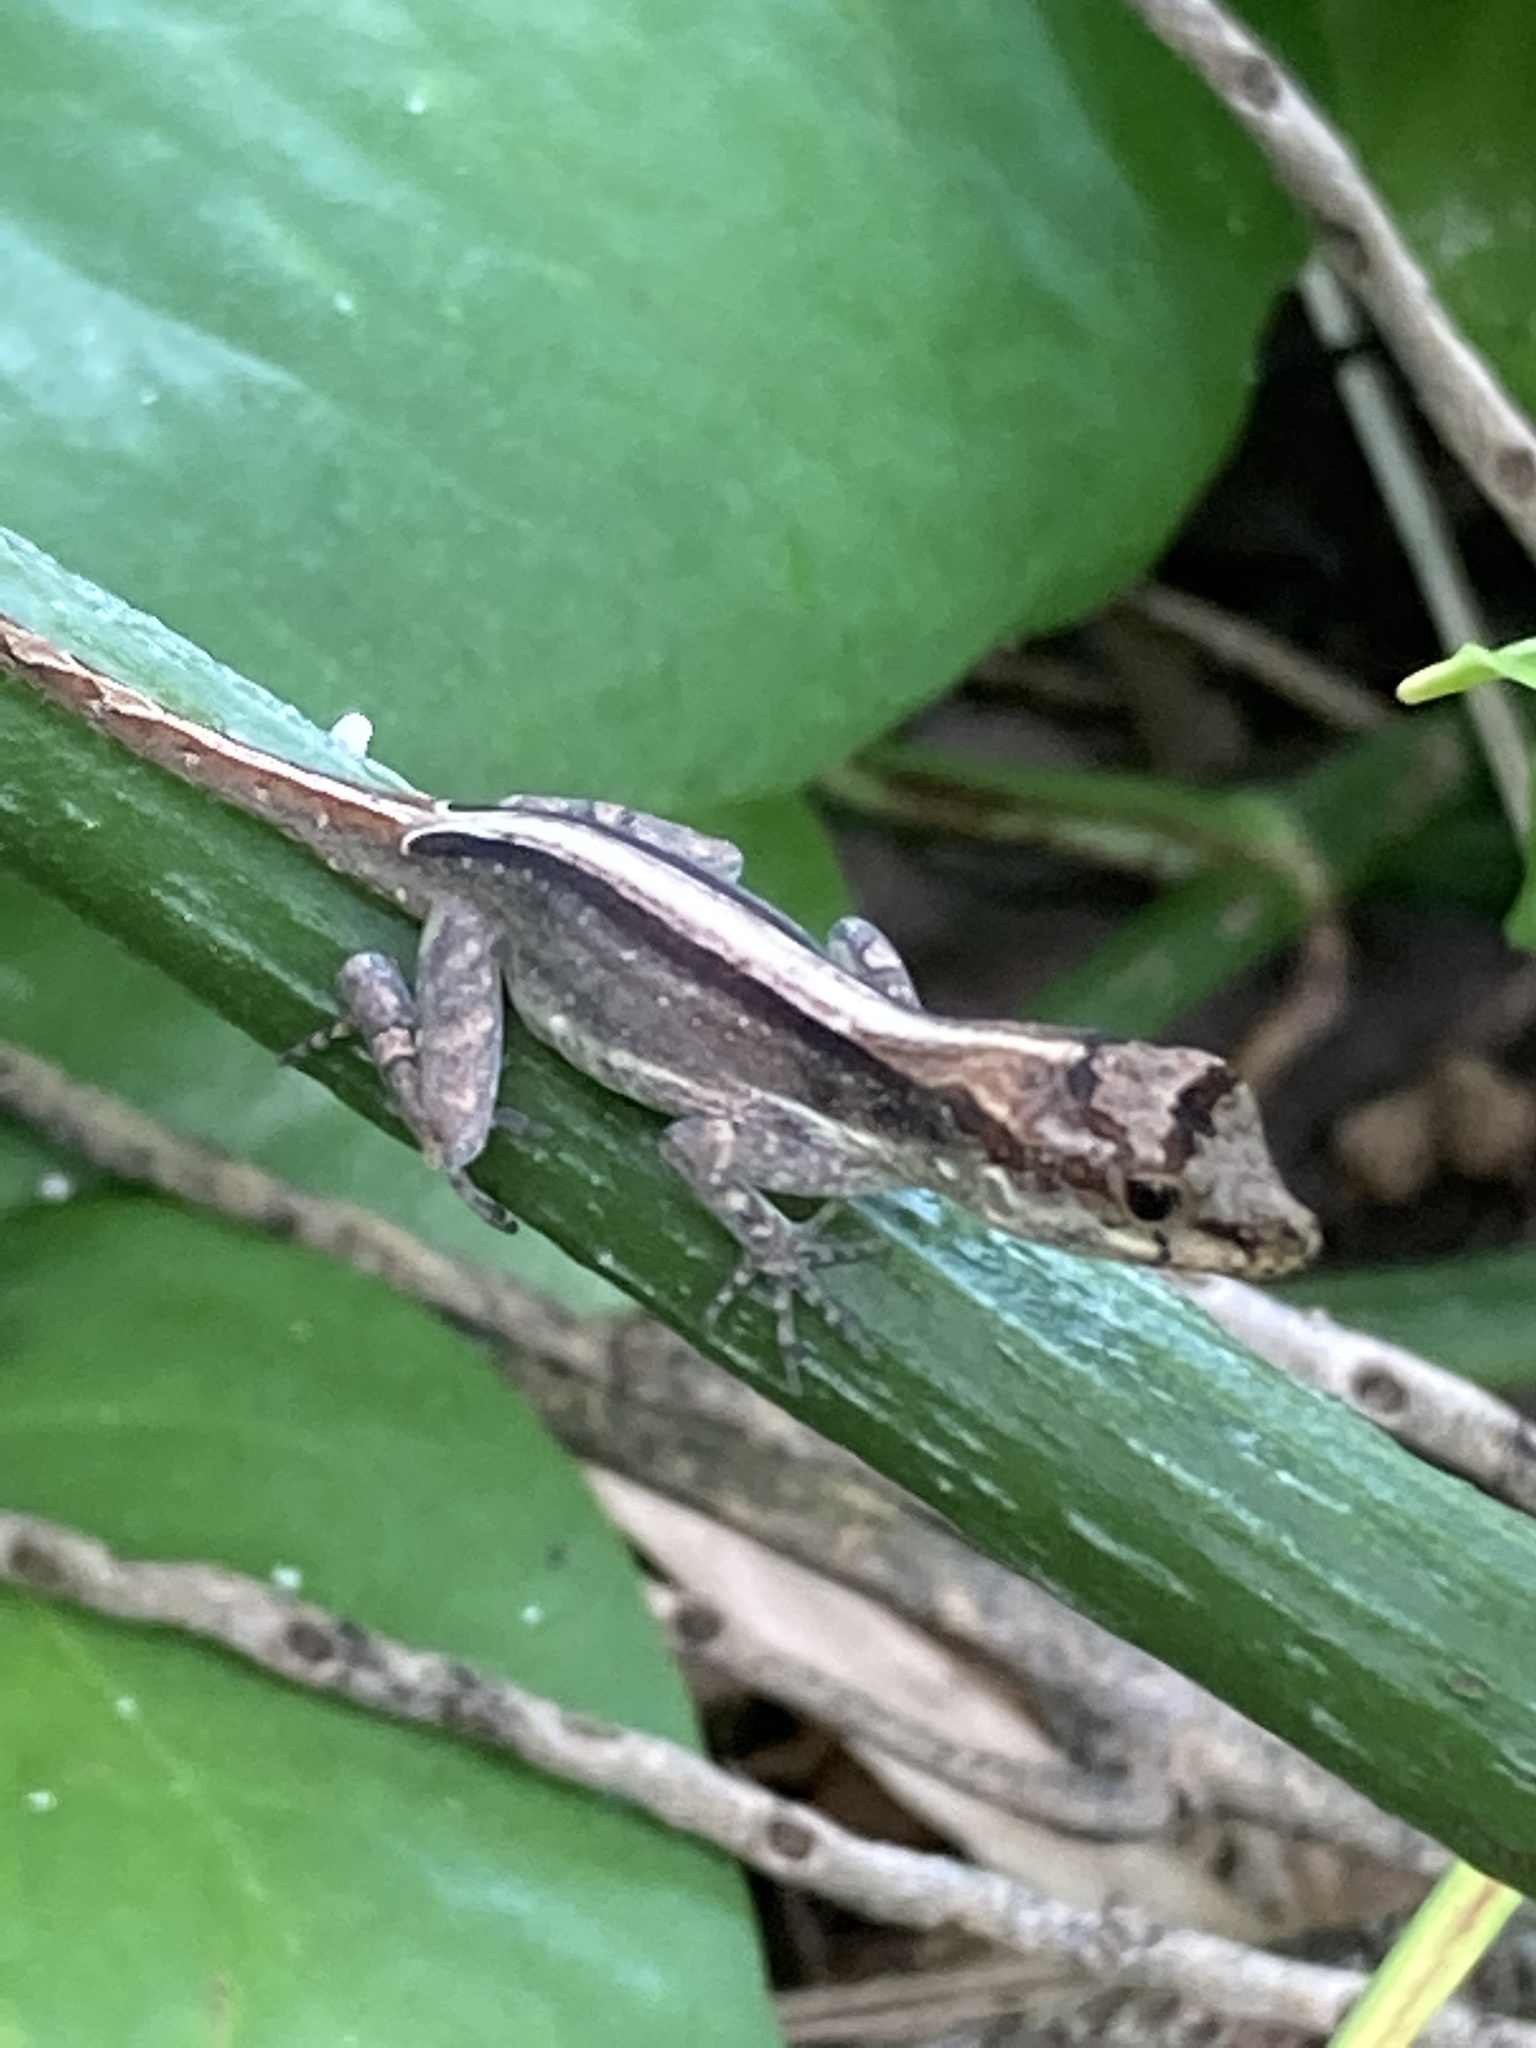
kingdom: Animalia
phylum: Chordata
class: Squamata
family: Dactyloidae
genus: Anolis
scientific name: Anolis cristatellus
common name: Crested anole
